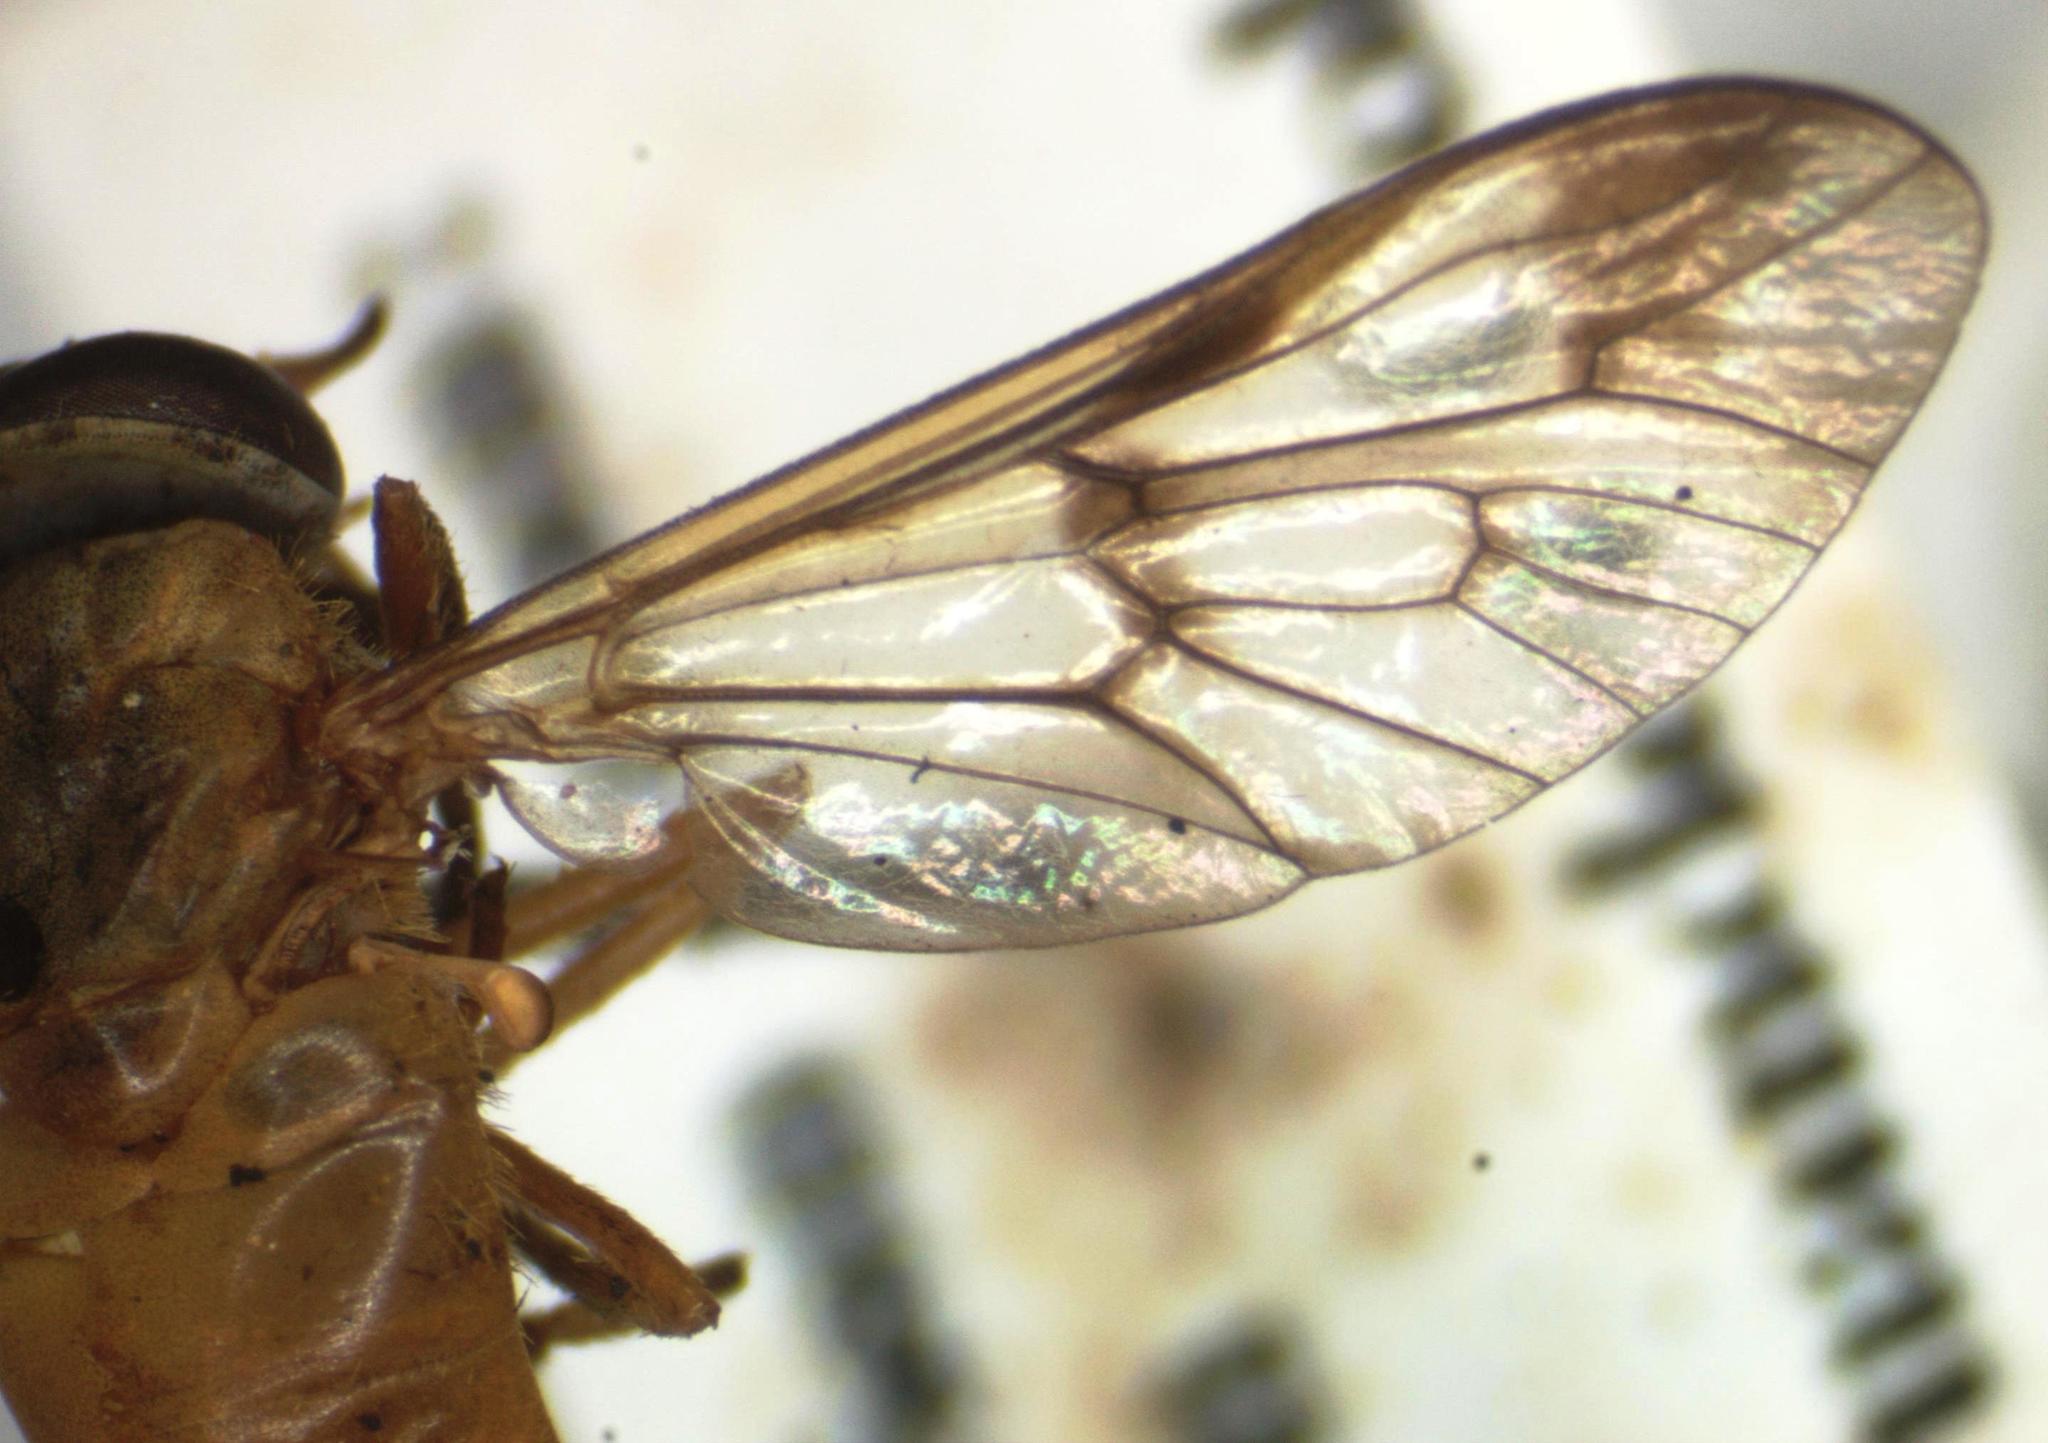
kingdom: Animalia
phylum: Arthropoda
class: Insecta
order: Diptera
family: Tabanidae
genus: Diachlorus
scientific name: Diachlorus ferrugatus
